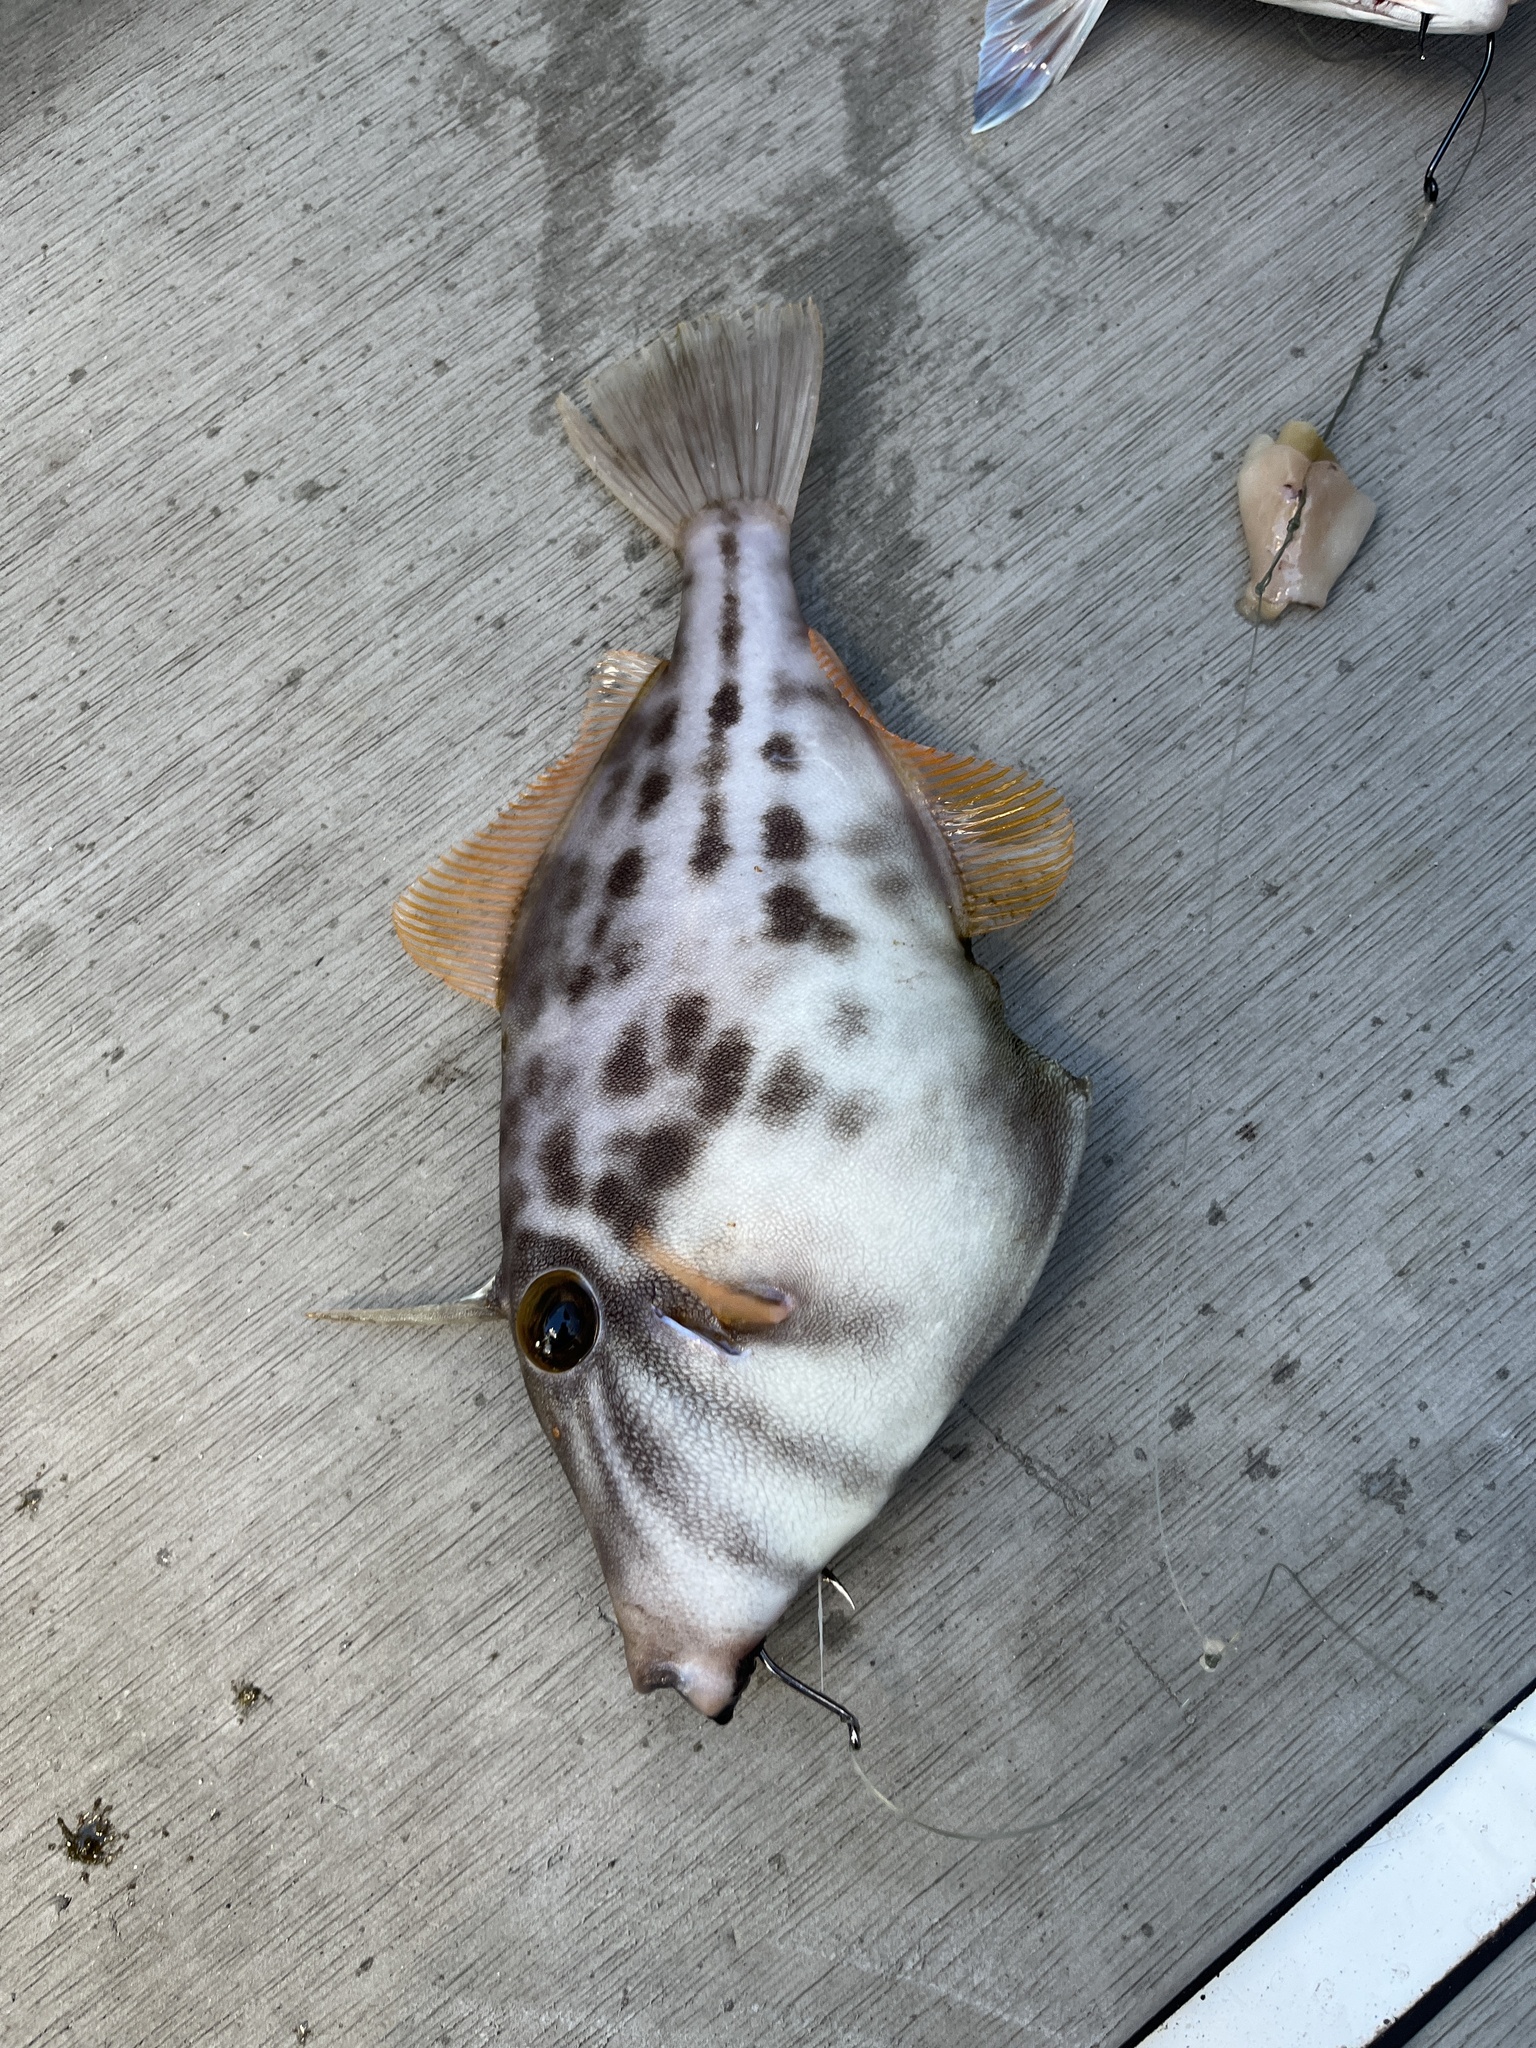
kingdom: Animalia
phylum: Chordata
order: Tetraodontiformes
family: Monacanthidae
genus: Meuschenia
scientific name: Meuschenia scaber
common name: Cosmopolitan leatherjacket
